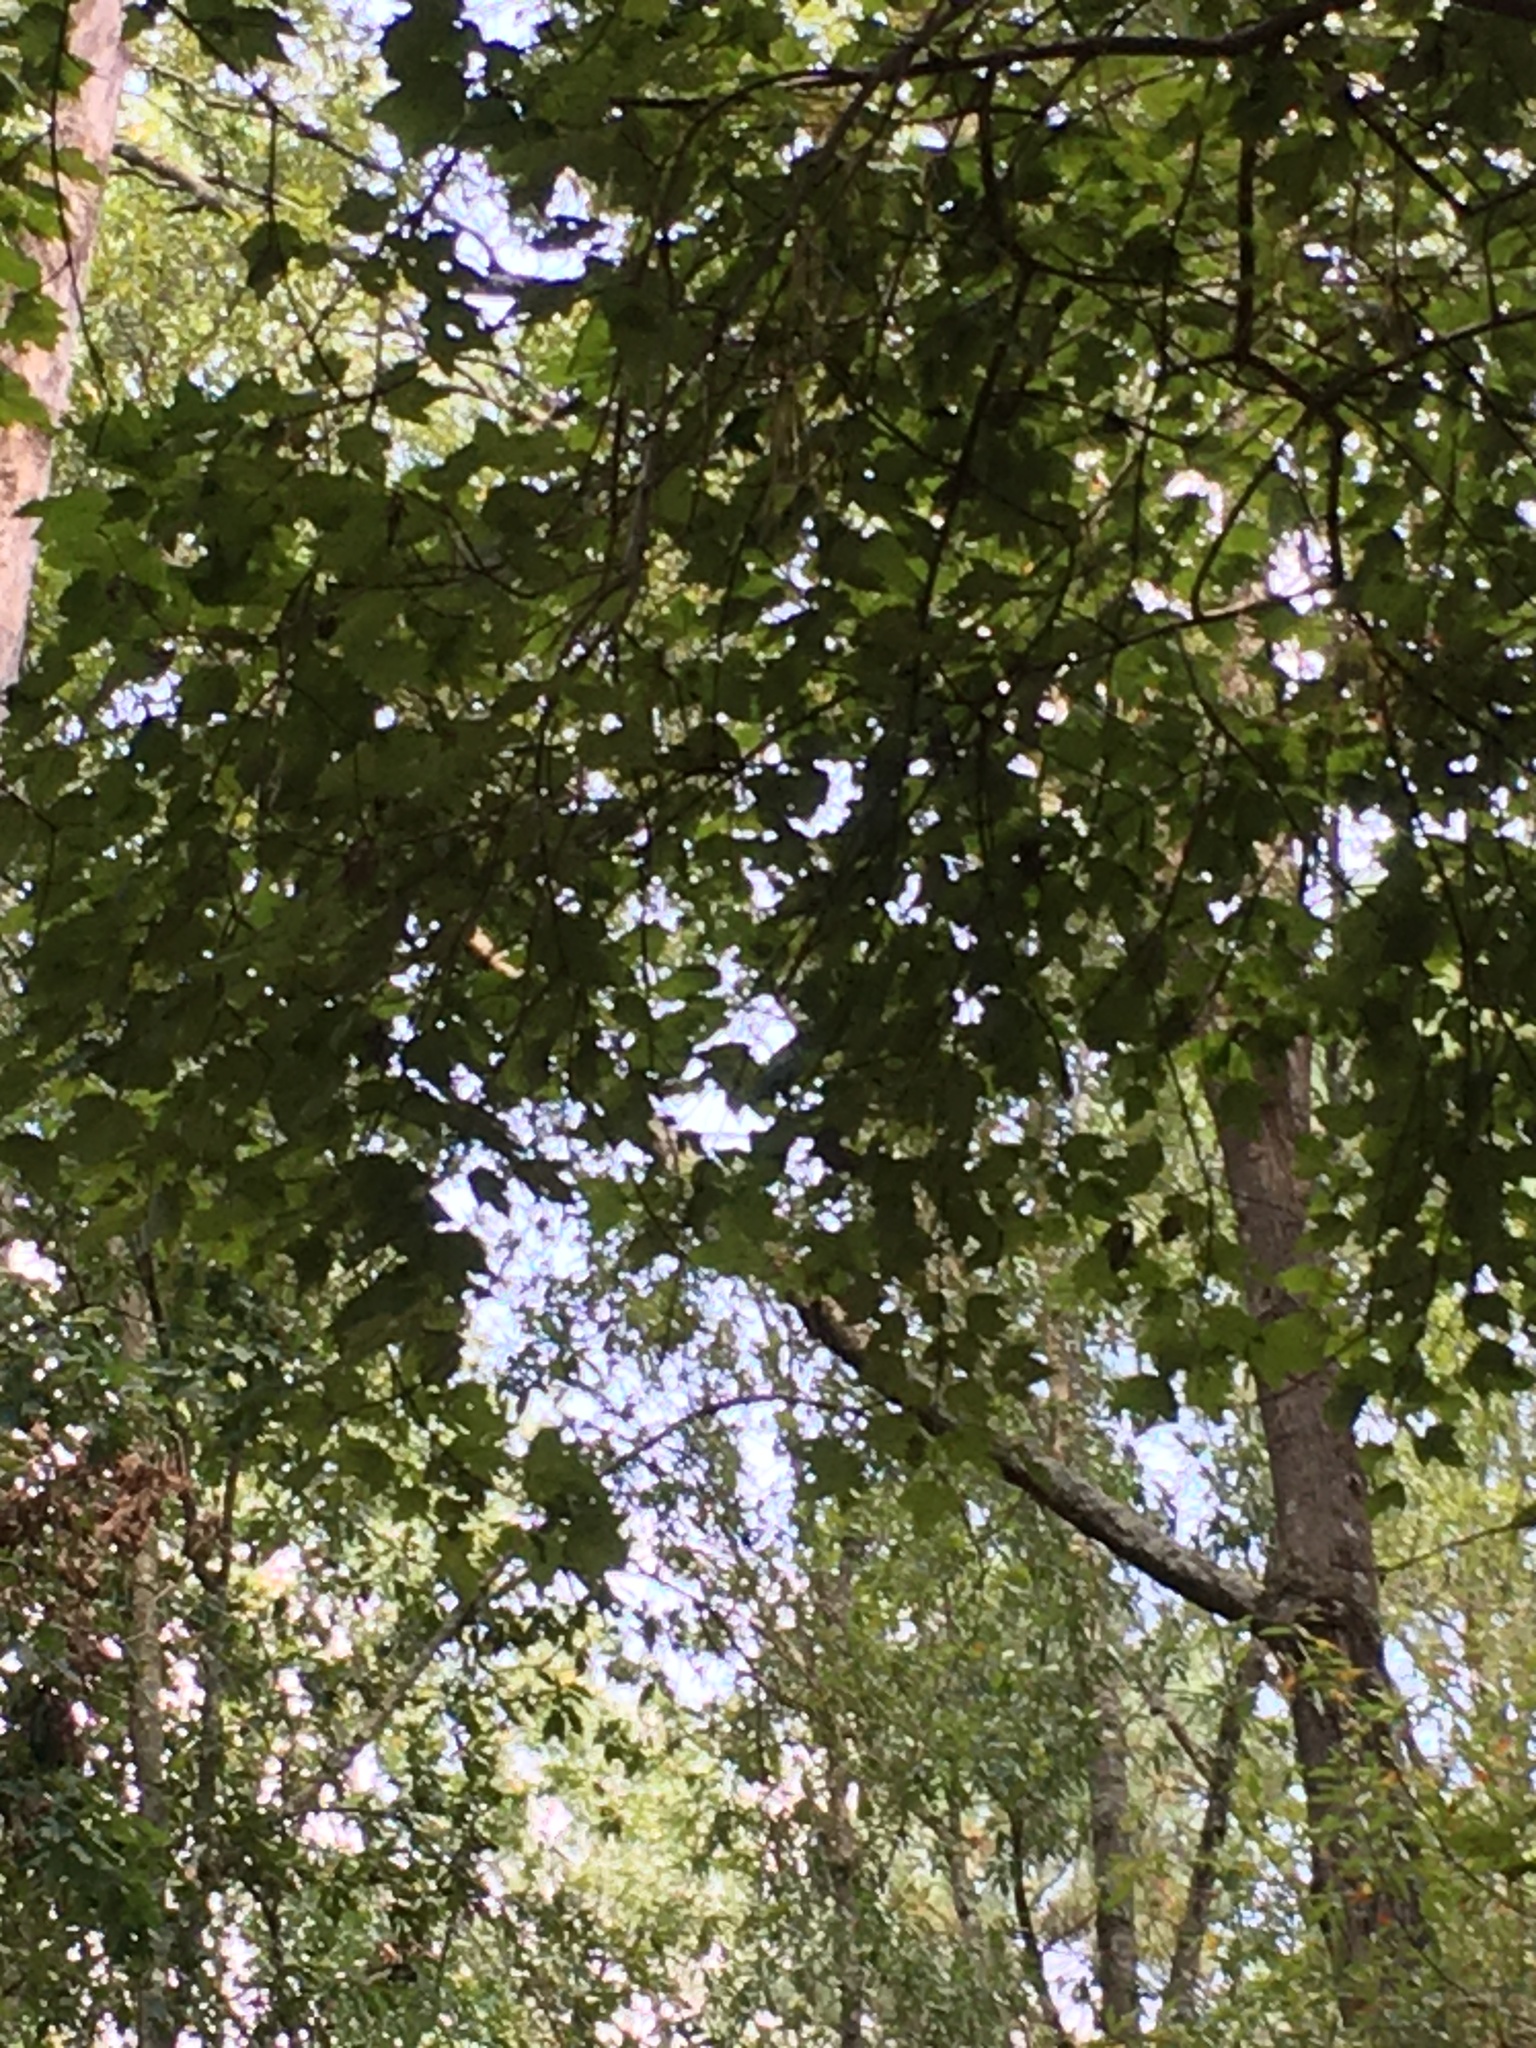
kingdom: Plantae
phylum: Tracheophyta
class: Magnoliopsida
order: Sapindales
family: Sapindaceae
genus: Acer
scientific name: Acer rubrum
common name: Red maple
